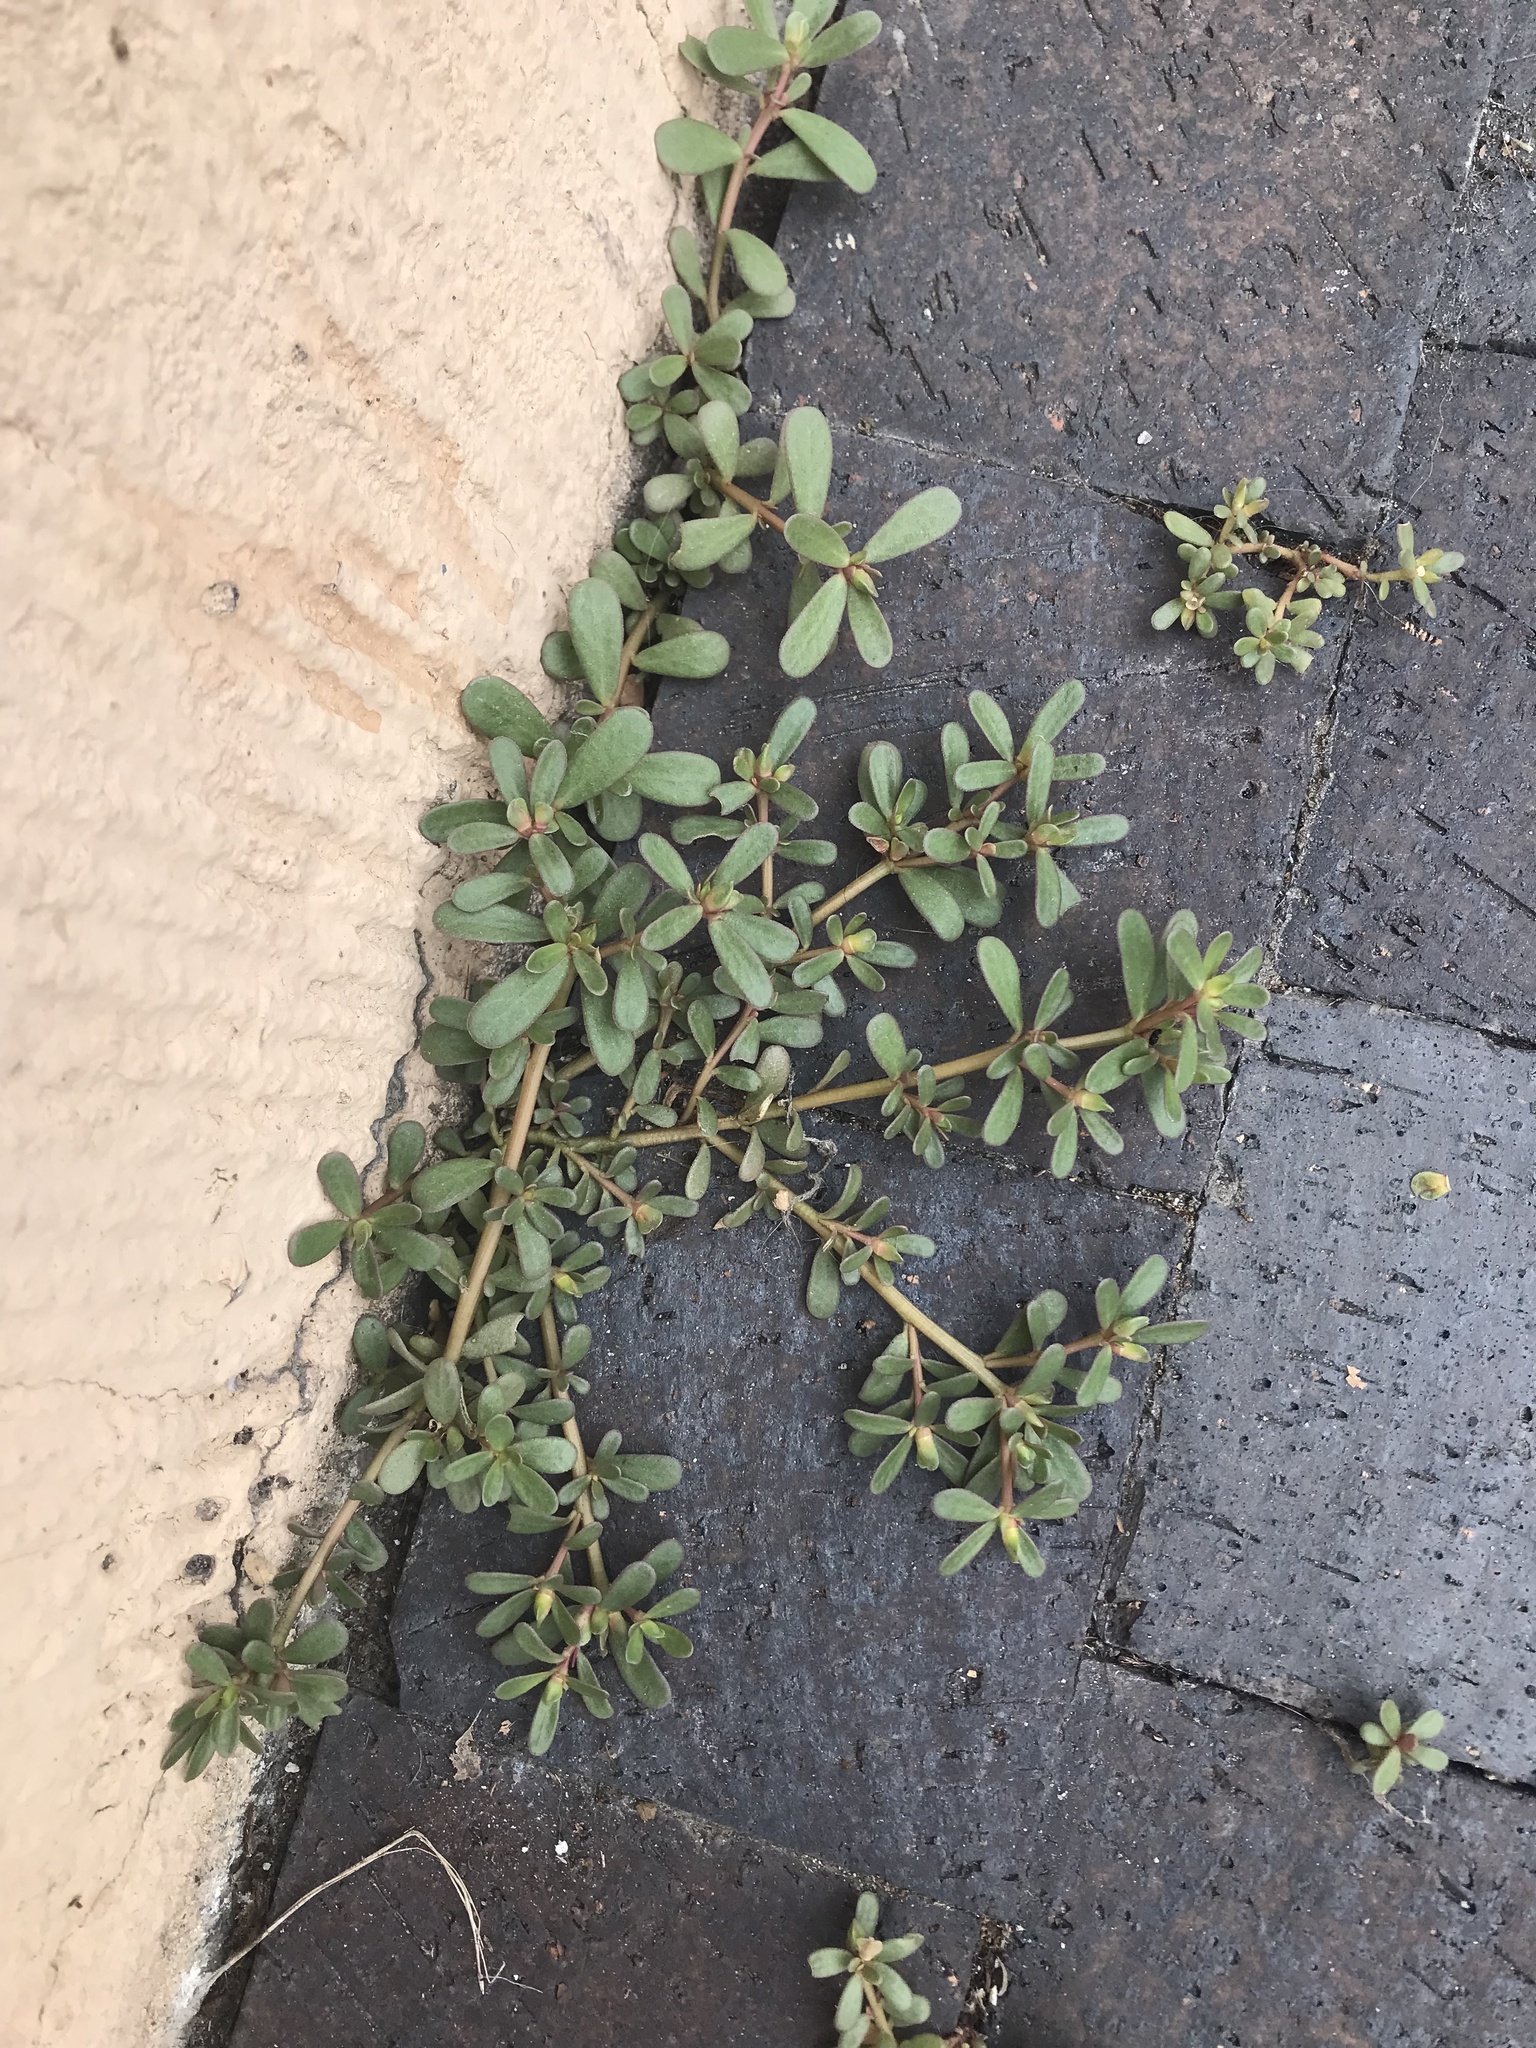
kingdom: Plantae
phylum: Tracheophyta
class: Magnoliopsida
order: Caryophyllales
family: Portulacaceae
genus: Portulaca
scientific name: Portulaca oleracea
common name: Common purslane
